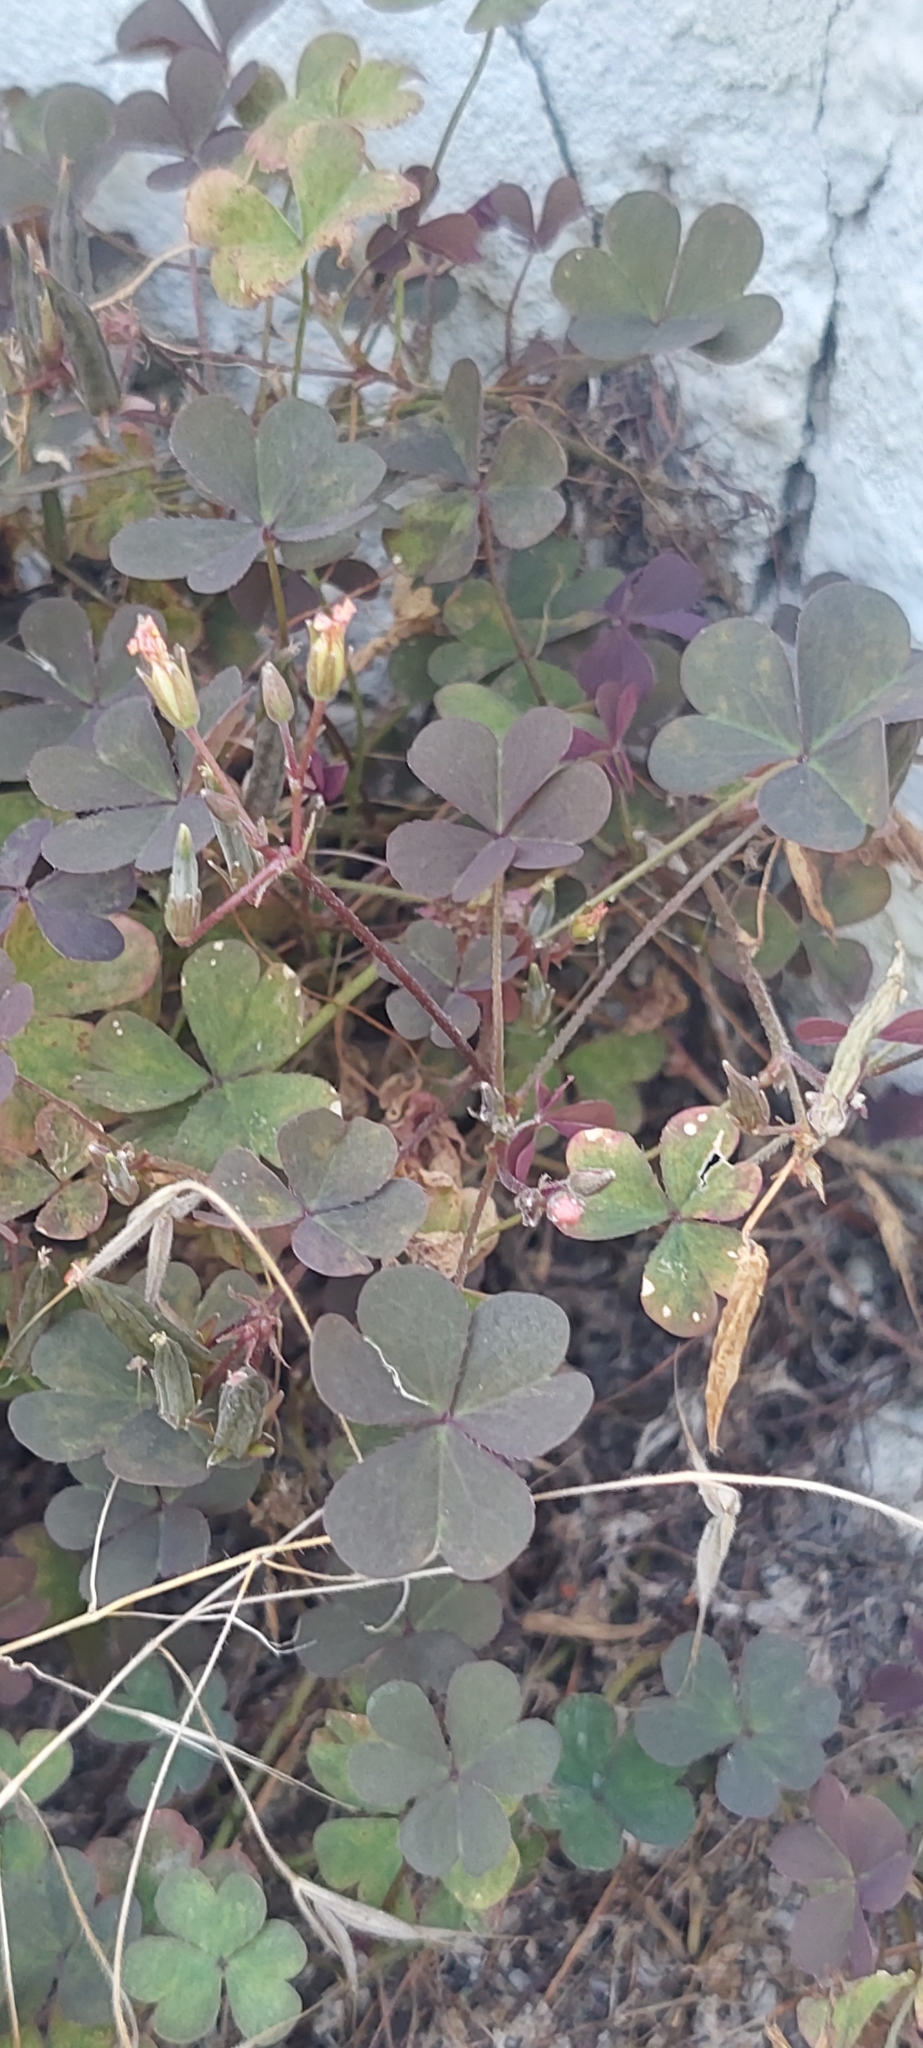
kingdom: Plantae
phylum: Tracheophyta
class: Magnoliopsida
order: Oxalidales
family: Oxalidaceae
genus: Oxalis
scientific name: Oxalis corniculata
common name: Procumbent yellow-sorrel
